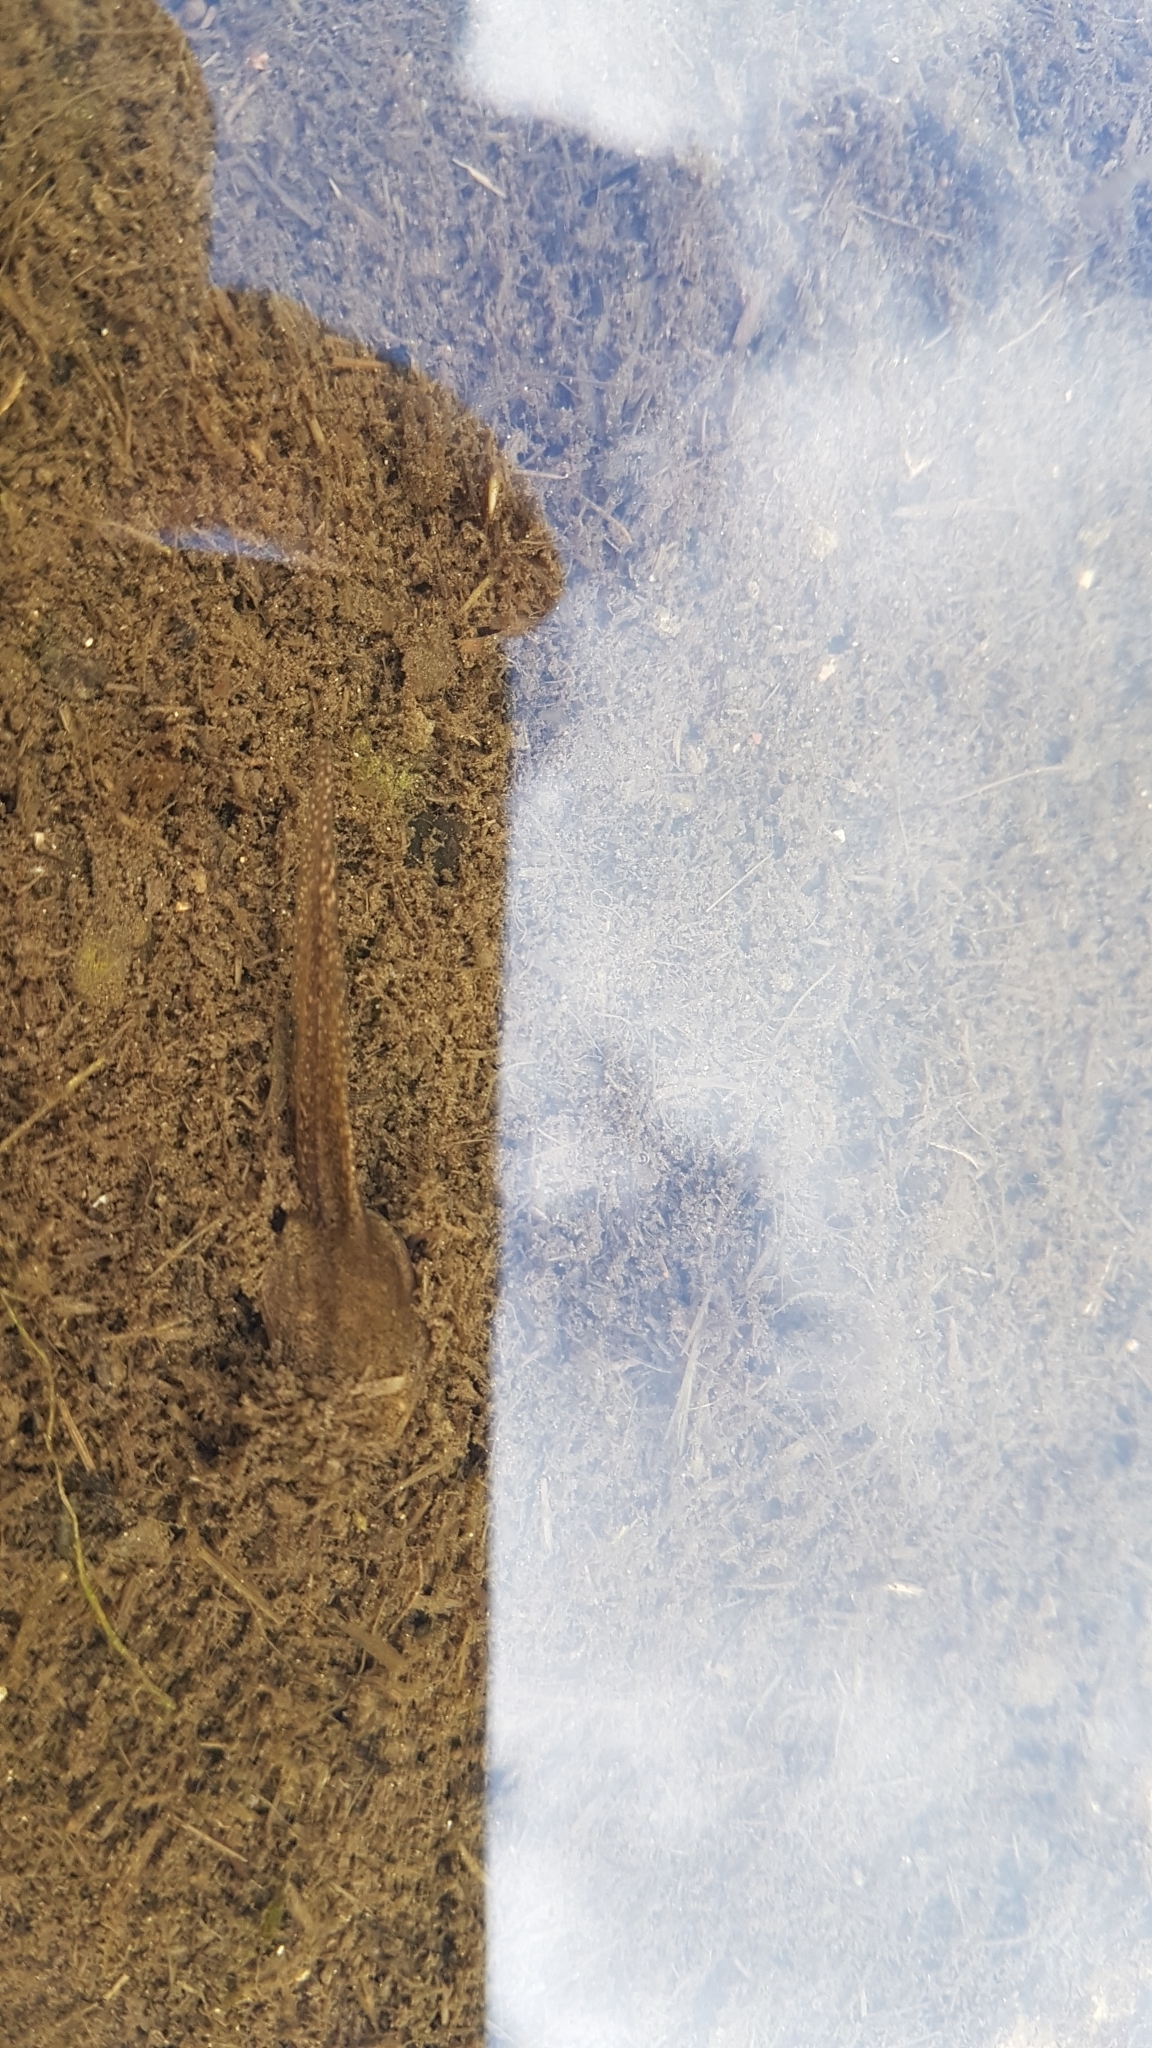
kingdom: Animalia
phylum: Chordata
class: Amphibia
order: Anura
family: Ranidae
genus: Rana
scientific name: Rana temporaria
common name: Common frog
